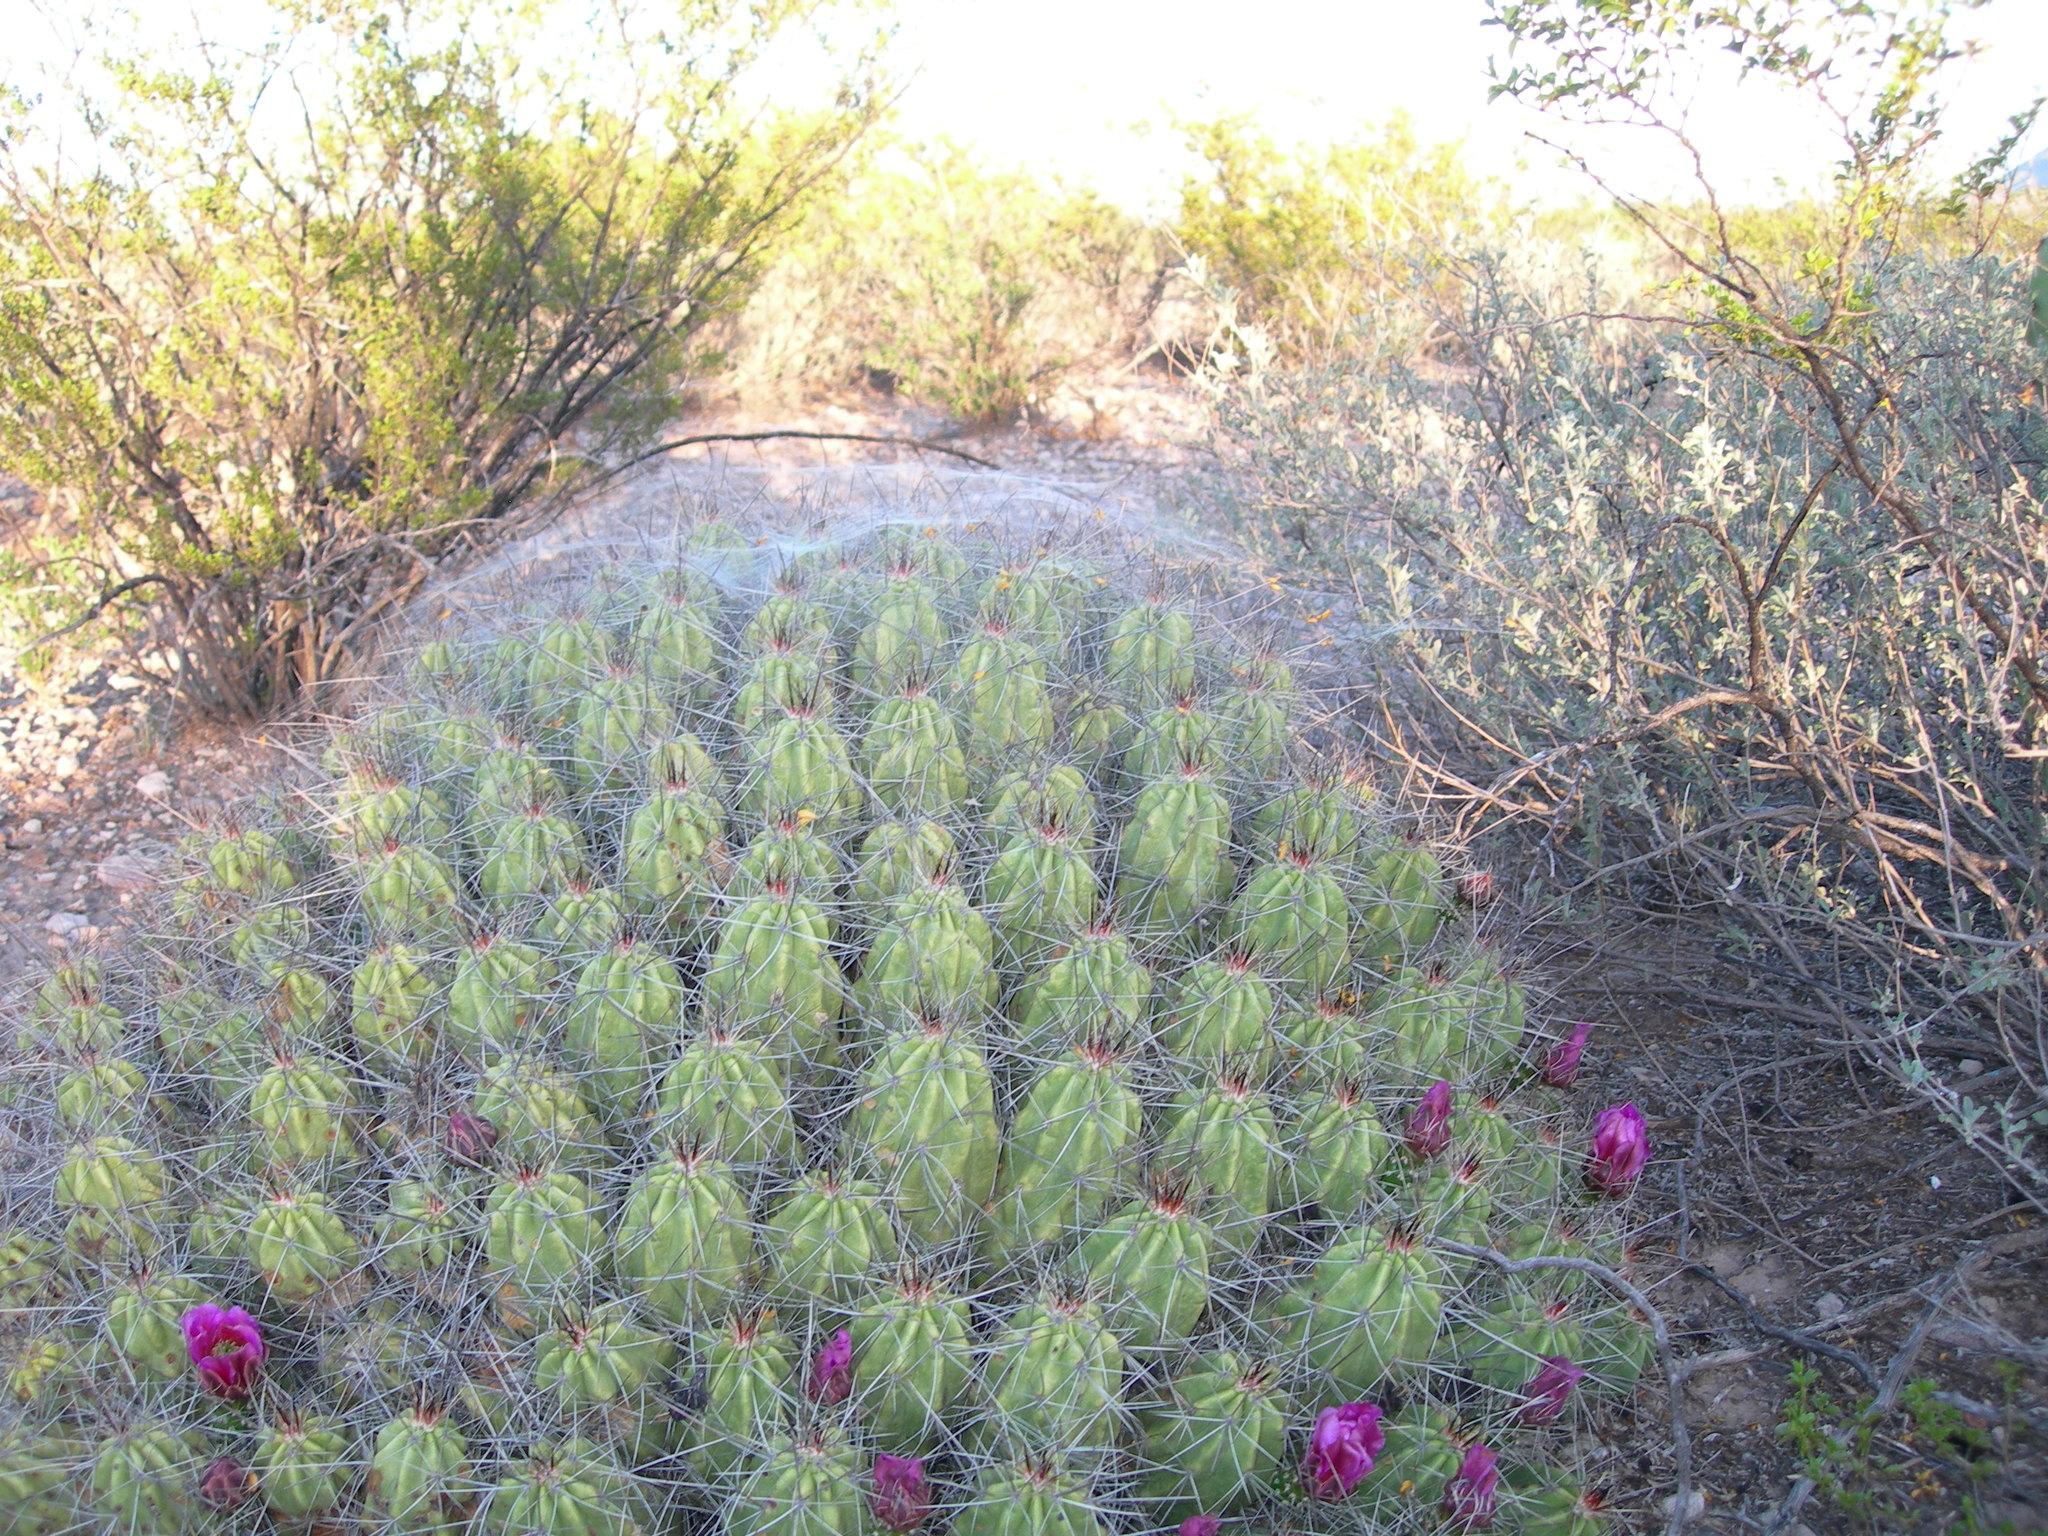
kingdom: Plantae
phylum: Tracheophyta
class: Magnoliopsida
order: Caryophyllales
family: Cactaceae
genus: Echinocereus
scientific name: Echinocereus enneacanthus
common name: Pitaya
